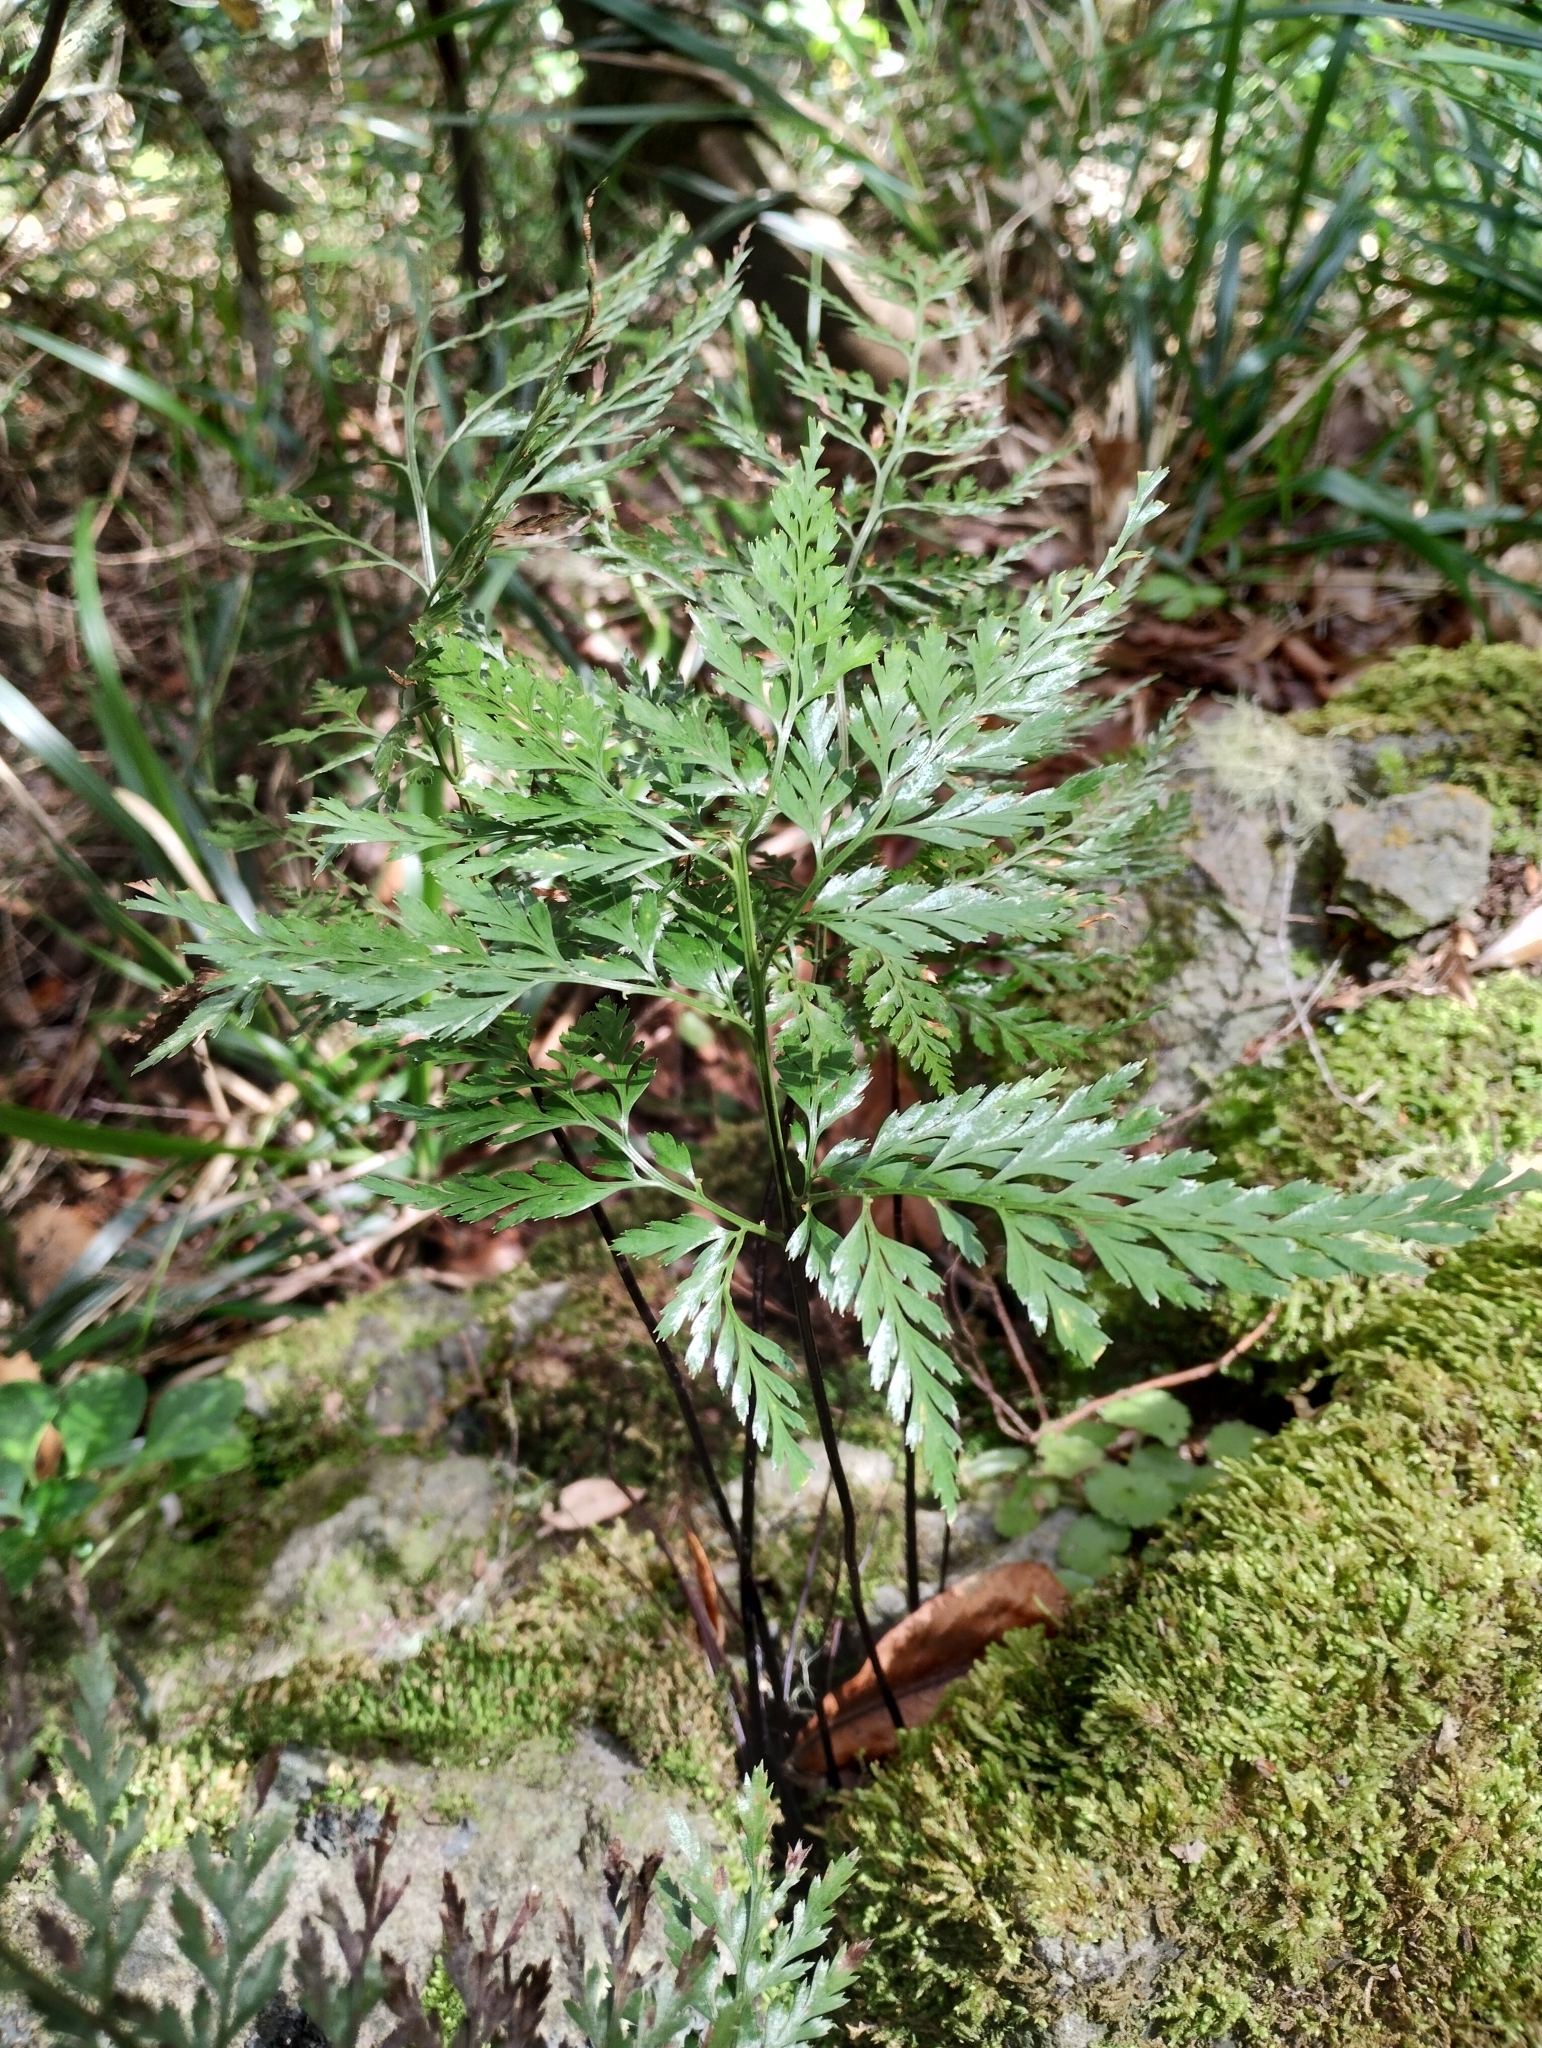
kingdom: Plantae
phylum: Tracheophyta
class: Polypodiopsida
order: Polypodiales
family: Aspleniaceae
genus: Asplenium
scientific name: Asplenium onopteris
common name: Irish spleenwort
